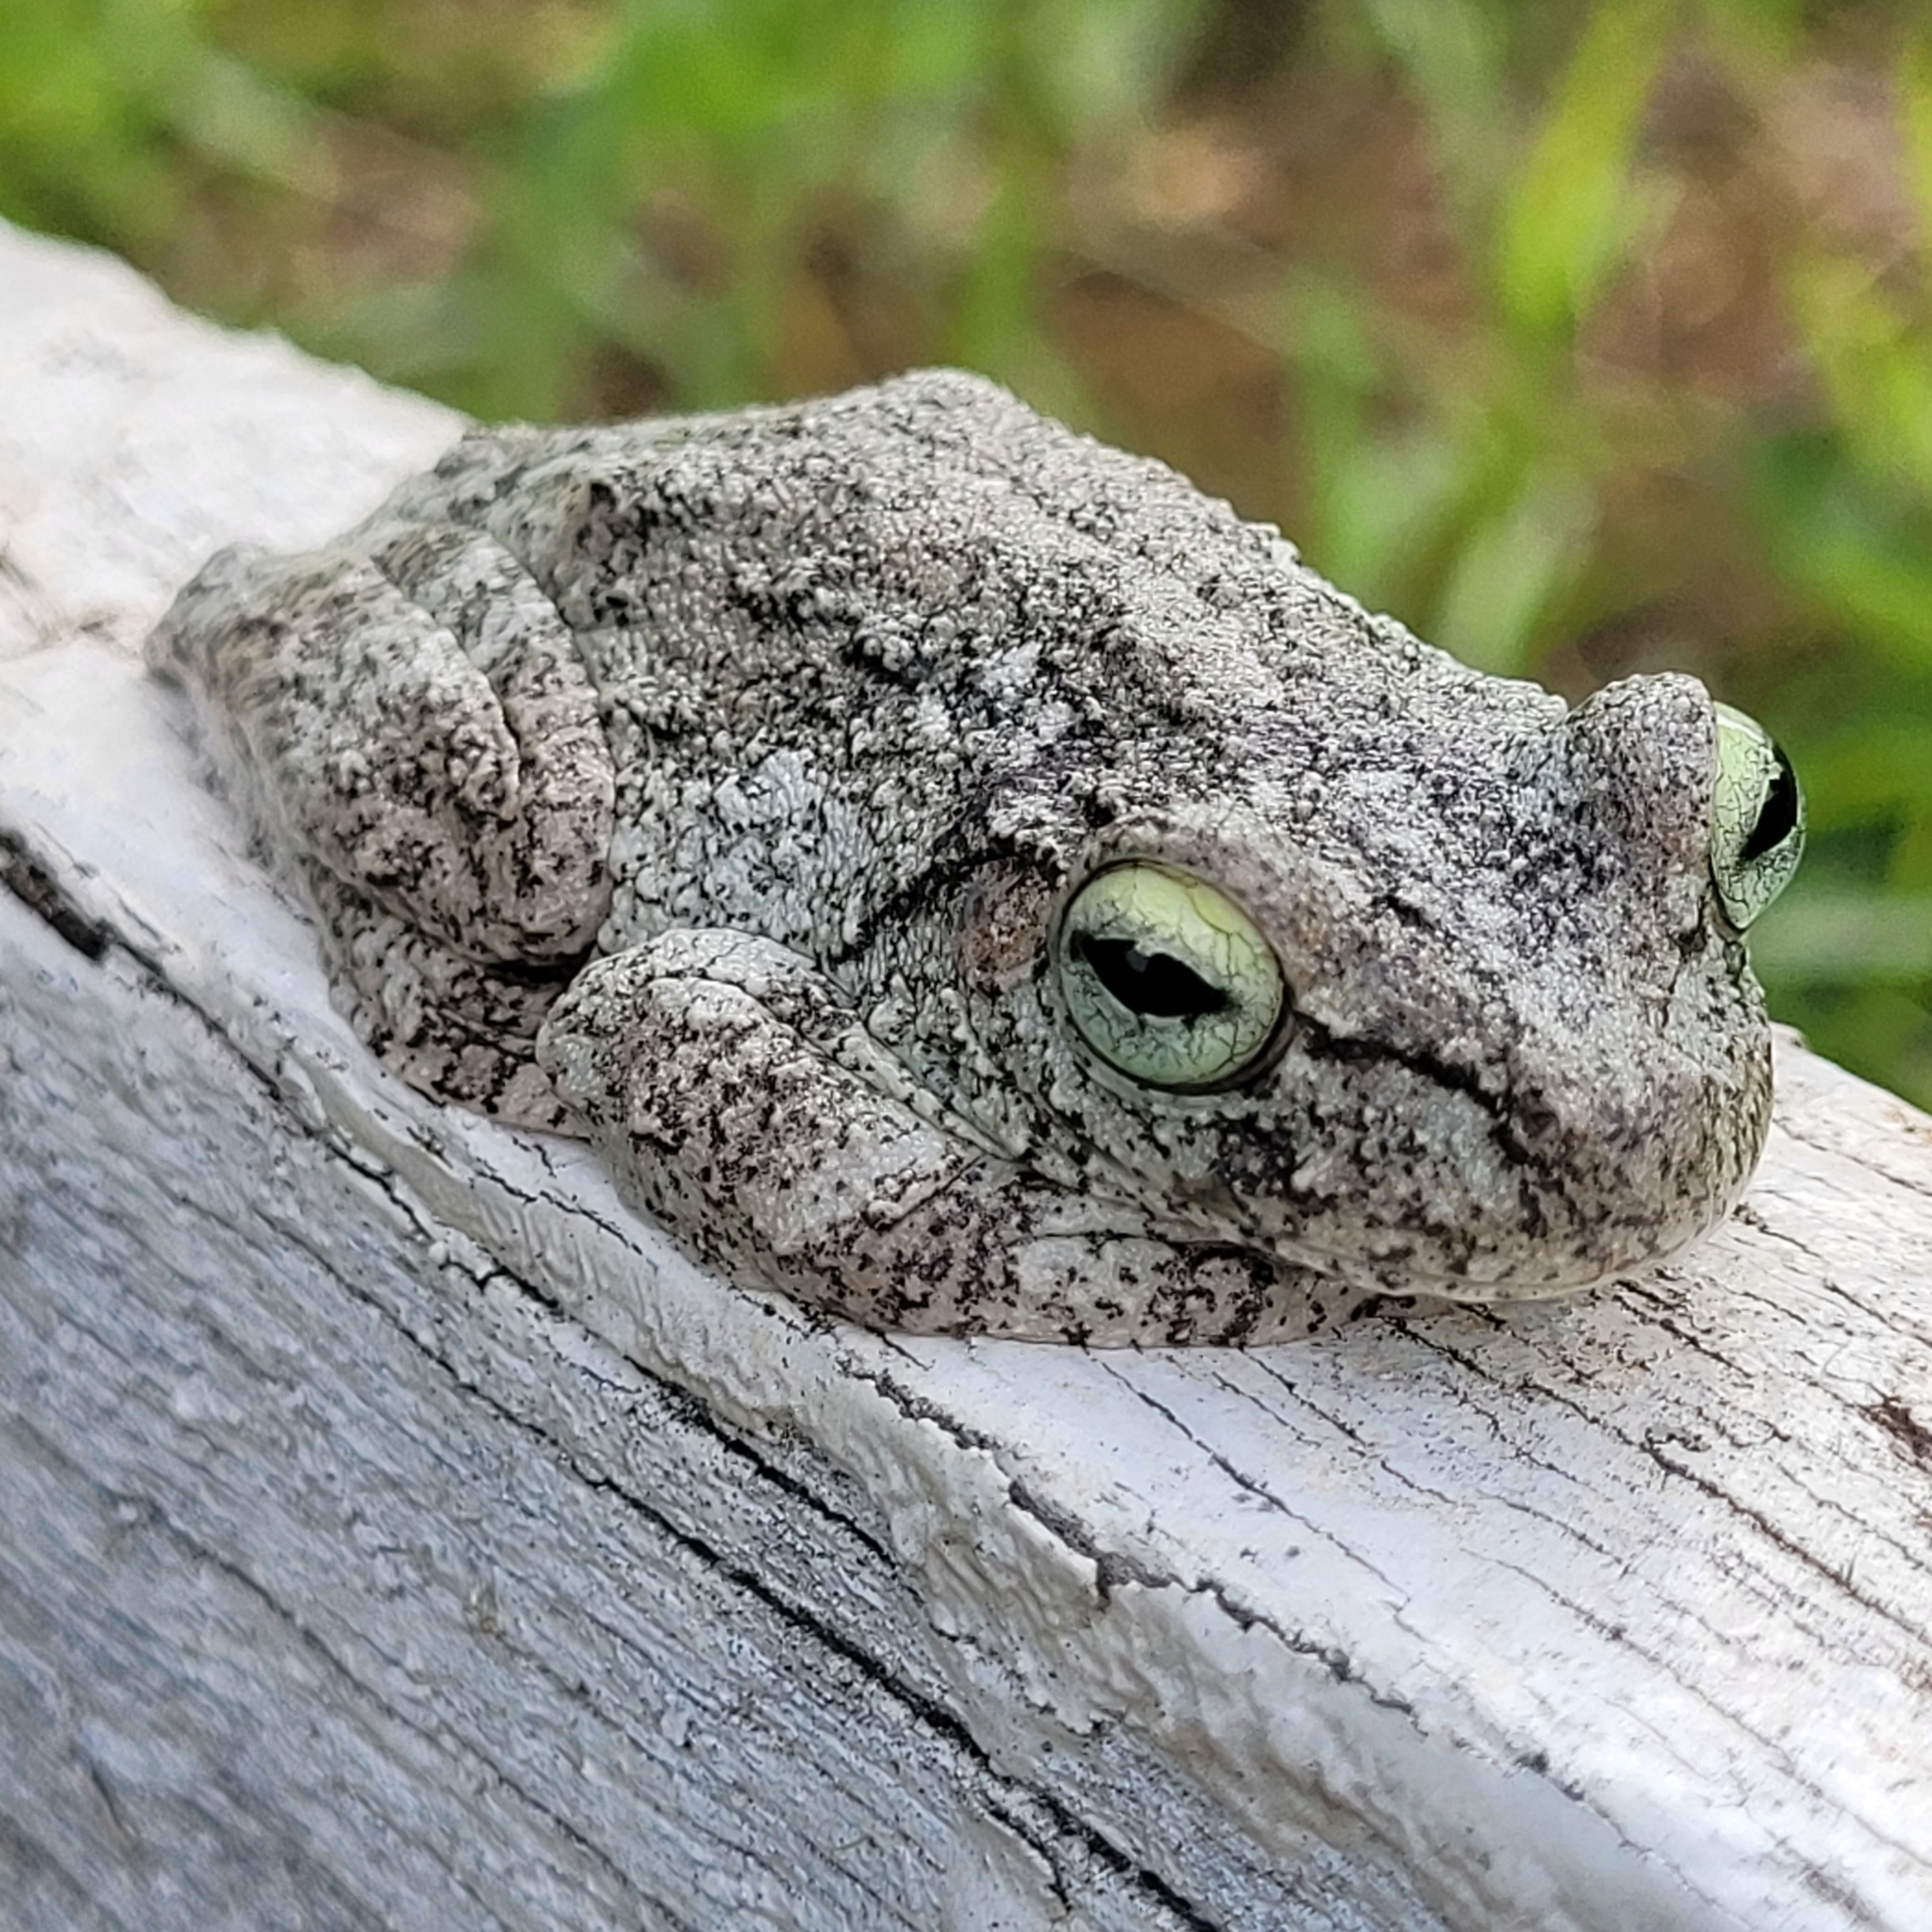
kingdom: Animalia
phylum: Chordata
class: Amphibia
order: Anura
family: Hylidae
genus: Boana
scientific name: Boana pardalis
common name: Leopard treefrog
